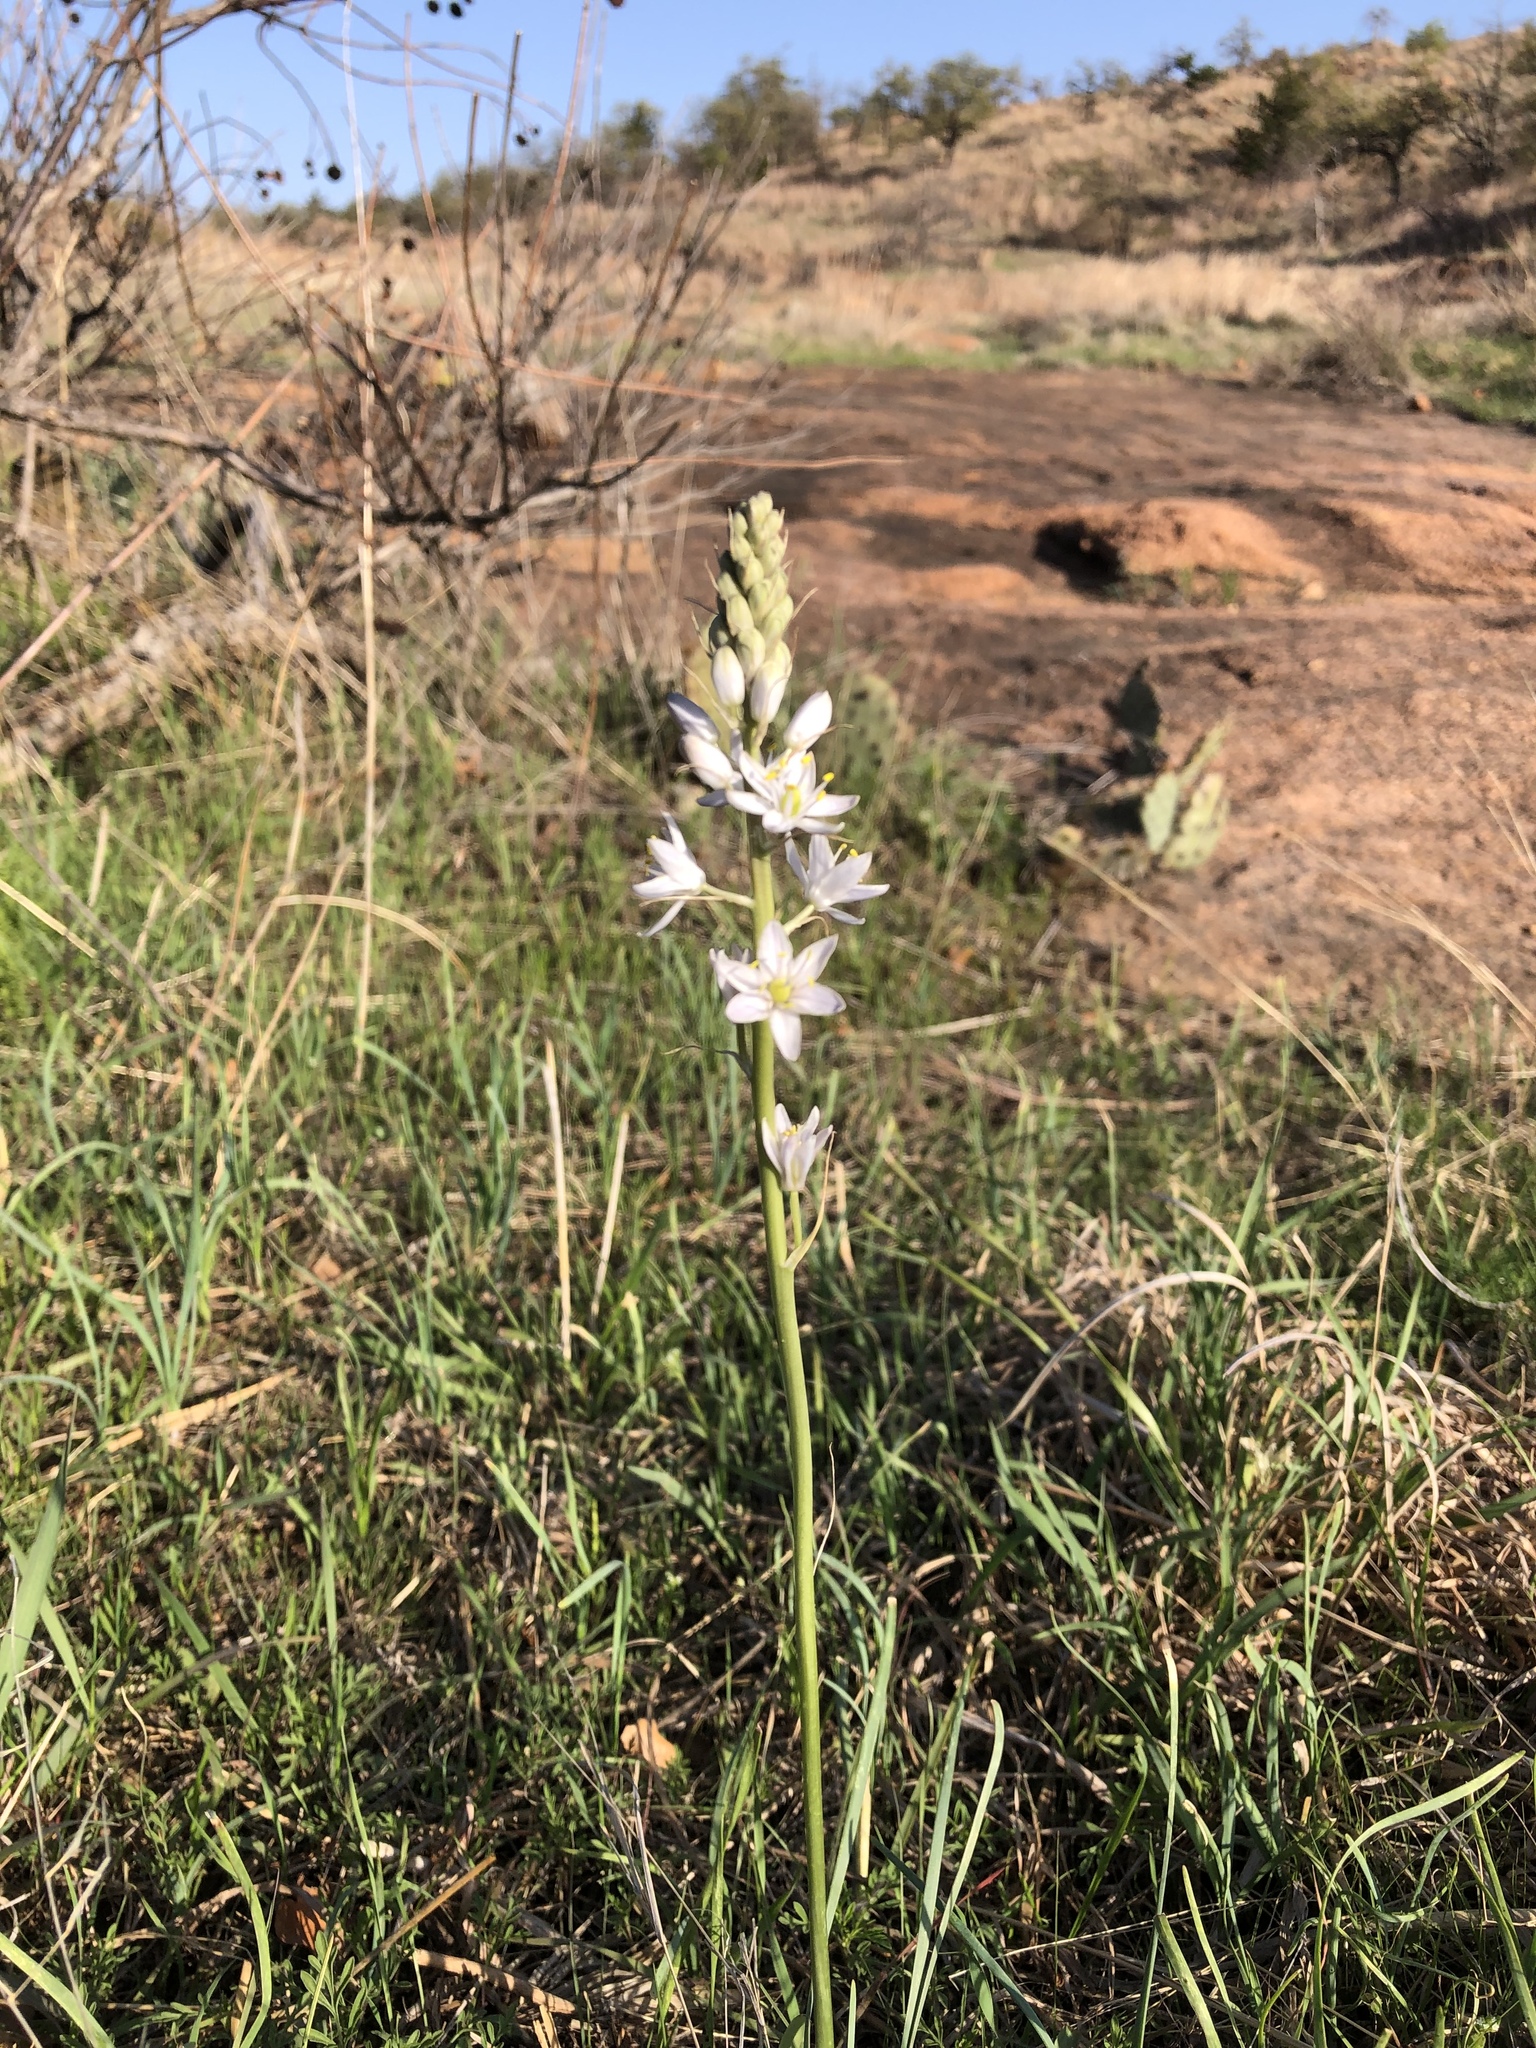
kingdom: Plantae
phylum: Tracheophyta
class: Liliopsida
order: Asparagales
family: Asparagaceae
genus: Camassia
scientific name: Camassia scilloides
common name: Wild hyacinth
